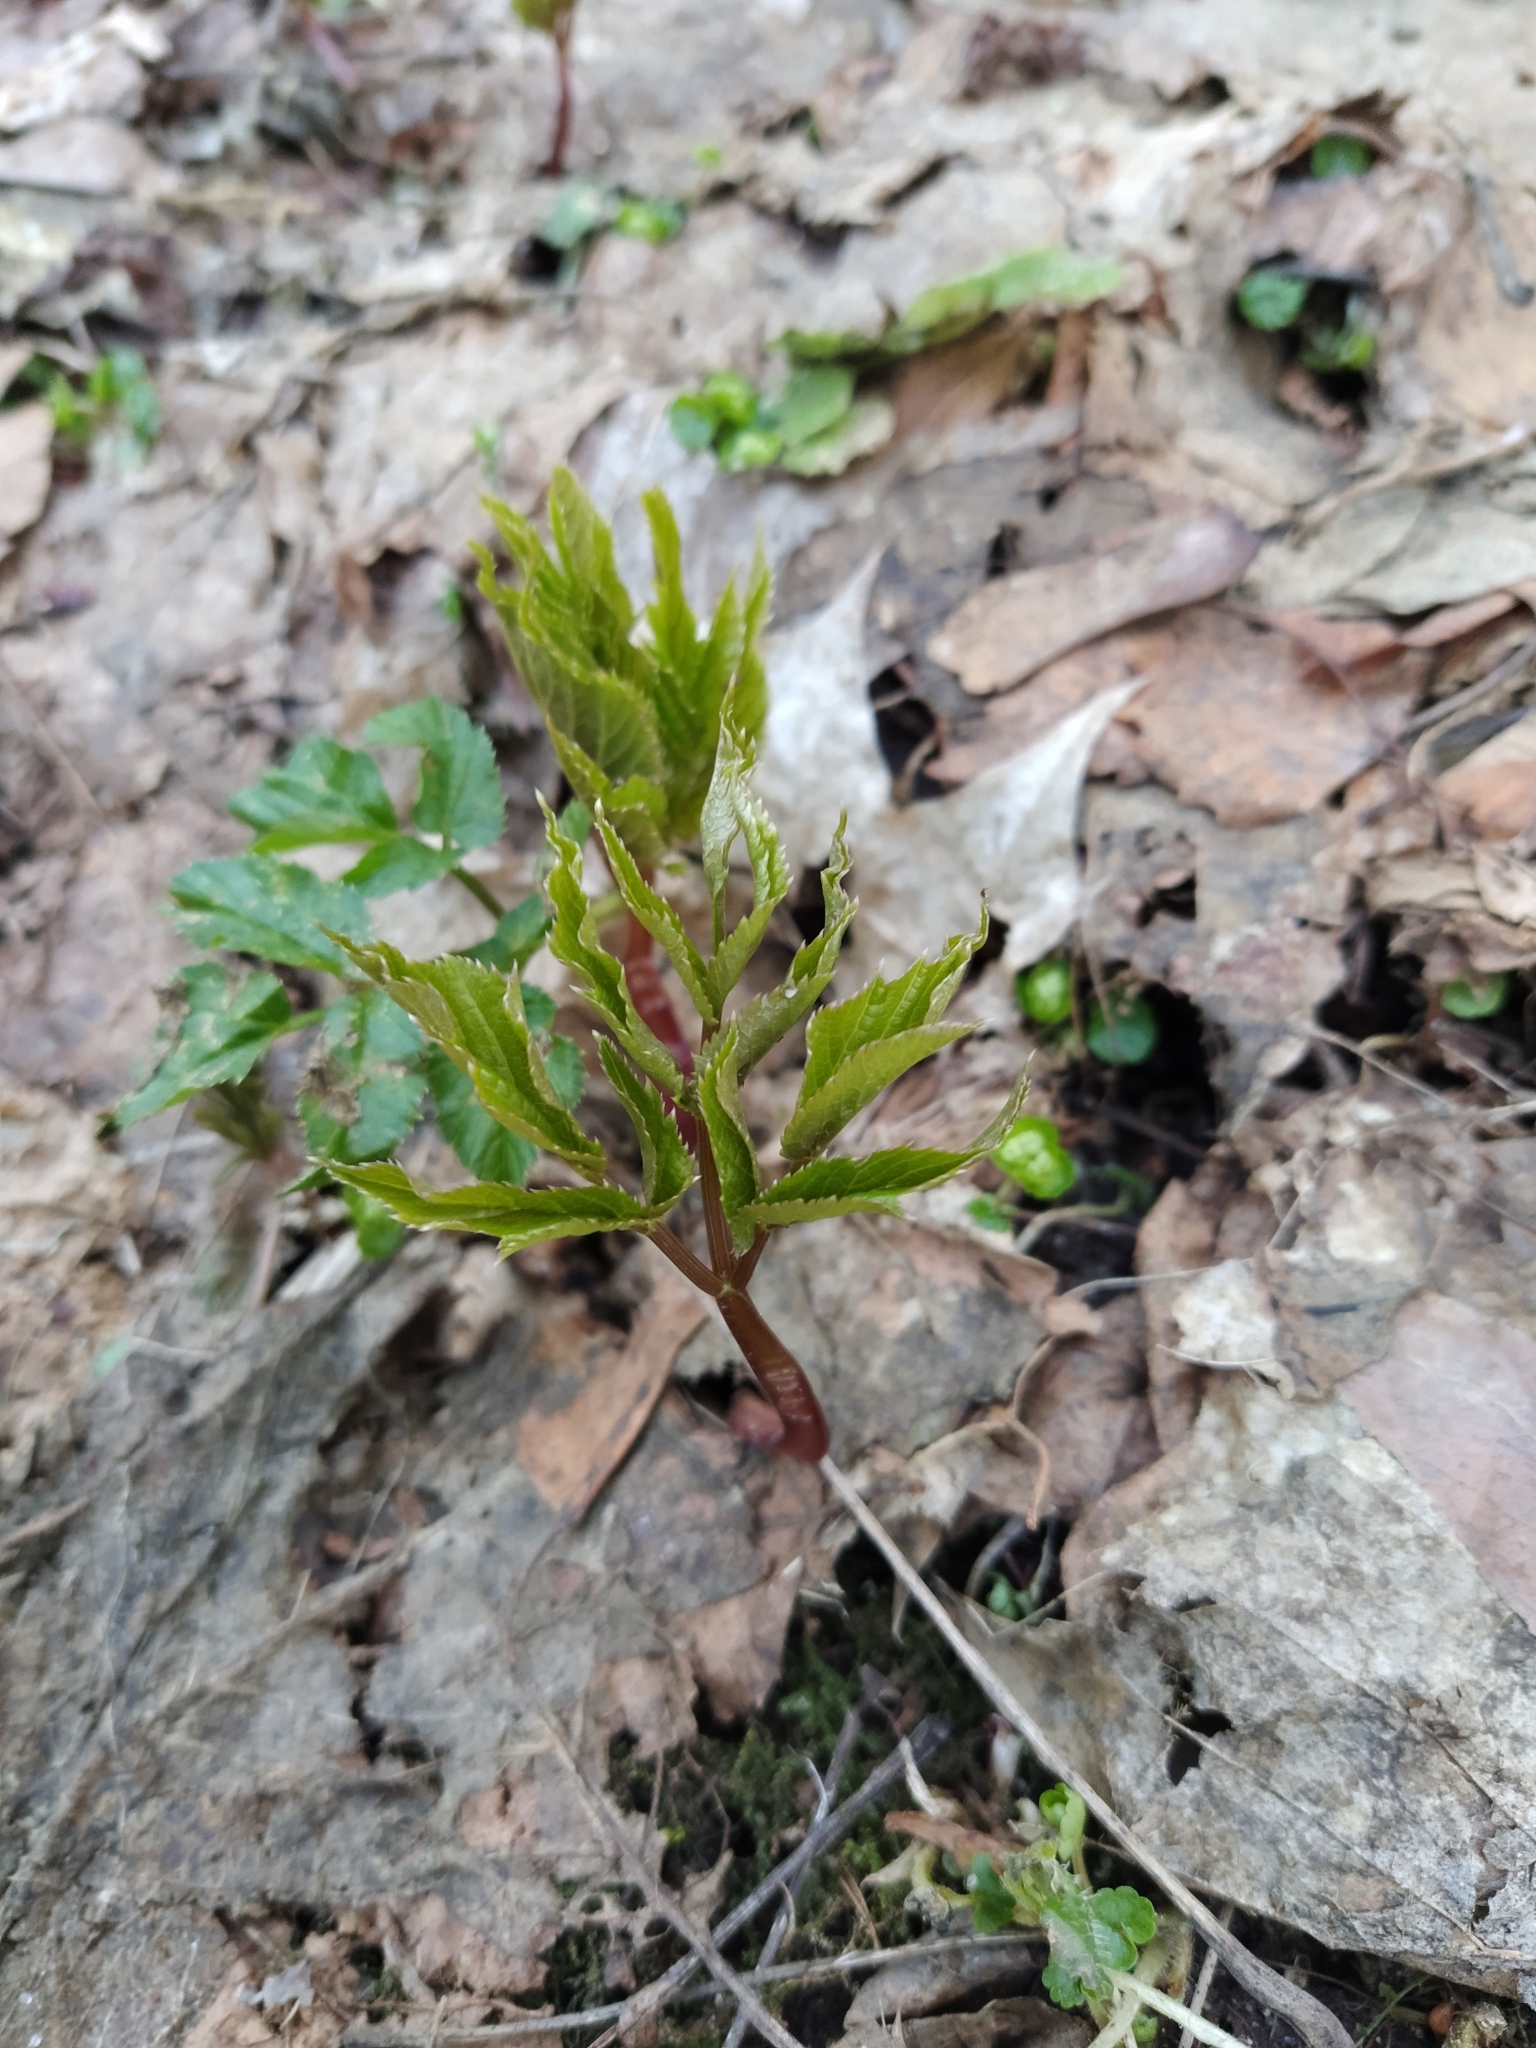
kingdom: Plantae
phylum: Tracheophyta
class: Magnoliopsida
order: Apiales
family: Apiaceae
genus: Aegopodium
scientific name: Aegopodium podagraria
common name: Ground-elder
